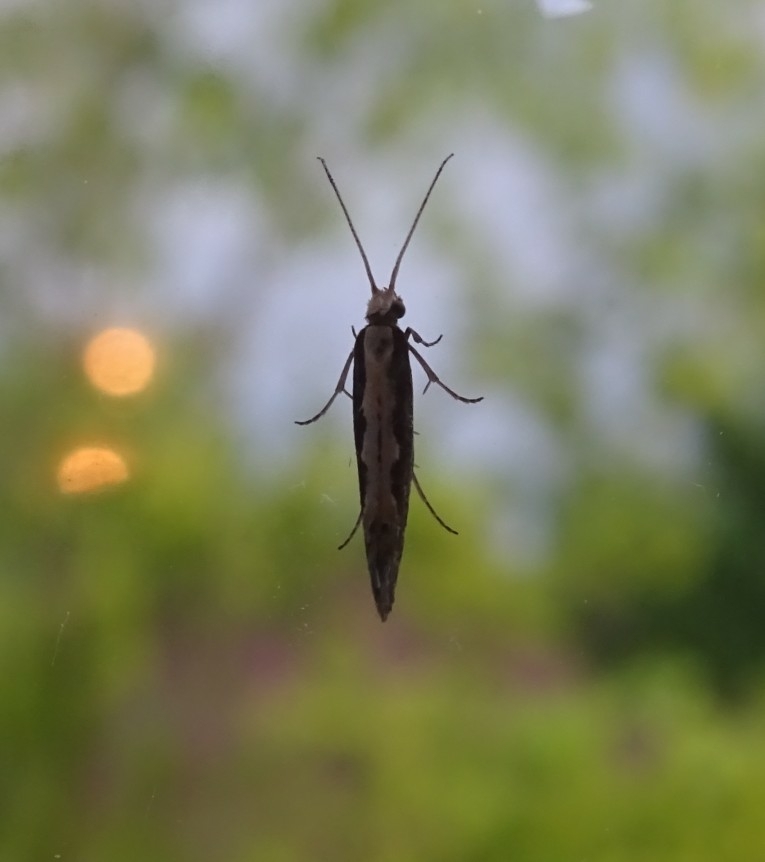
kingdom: Animalia
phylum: Arthropoda
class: Insecta
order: Lepidoptera
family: Plutellidae
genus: Plutella
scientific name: Plutella xylostella
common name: Diamond-back moth
